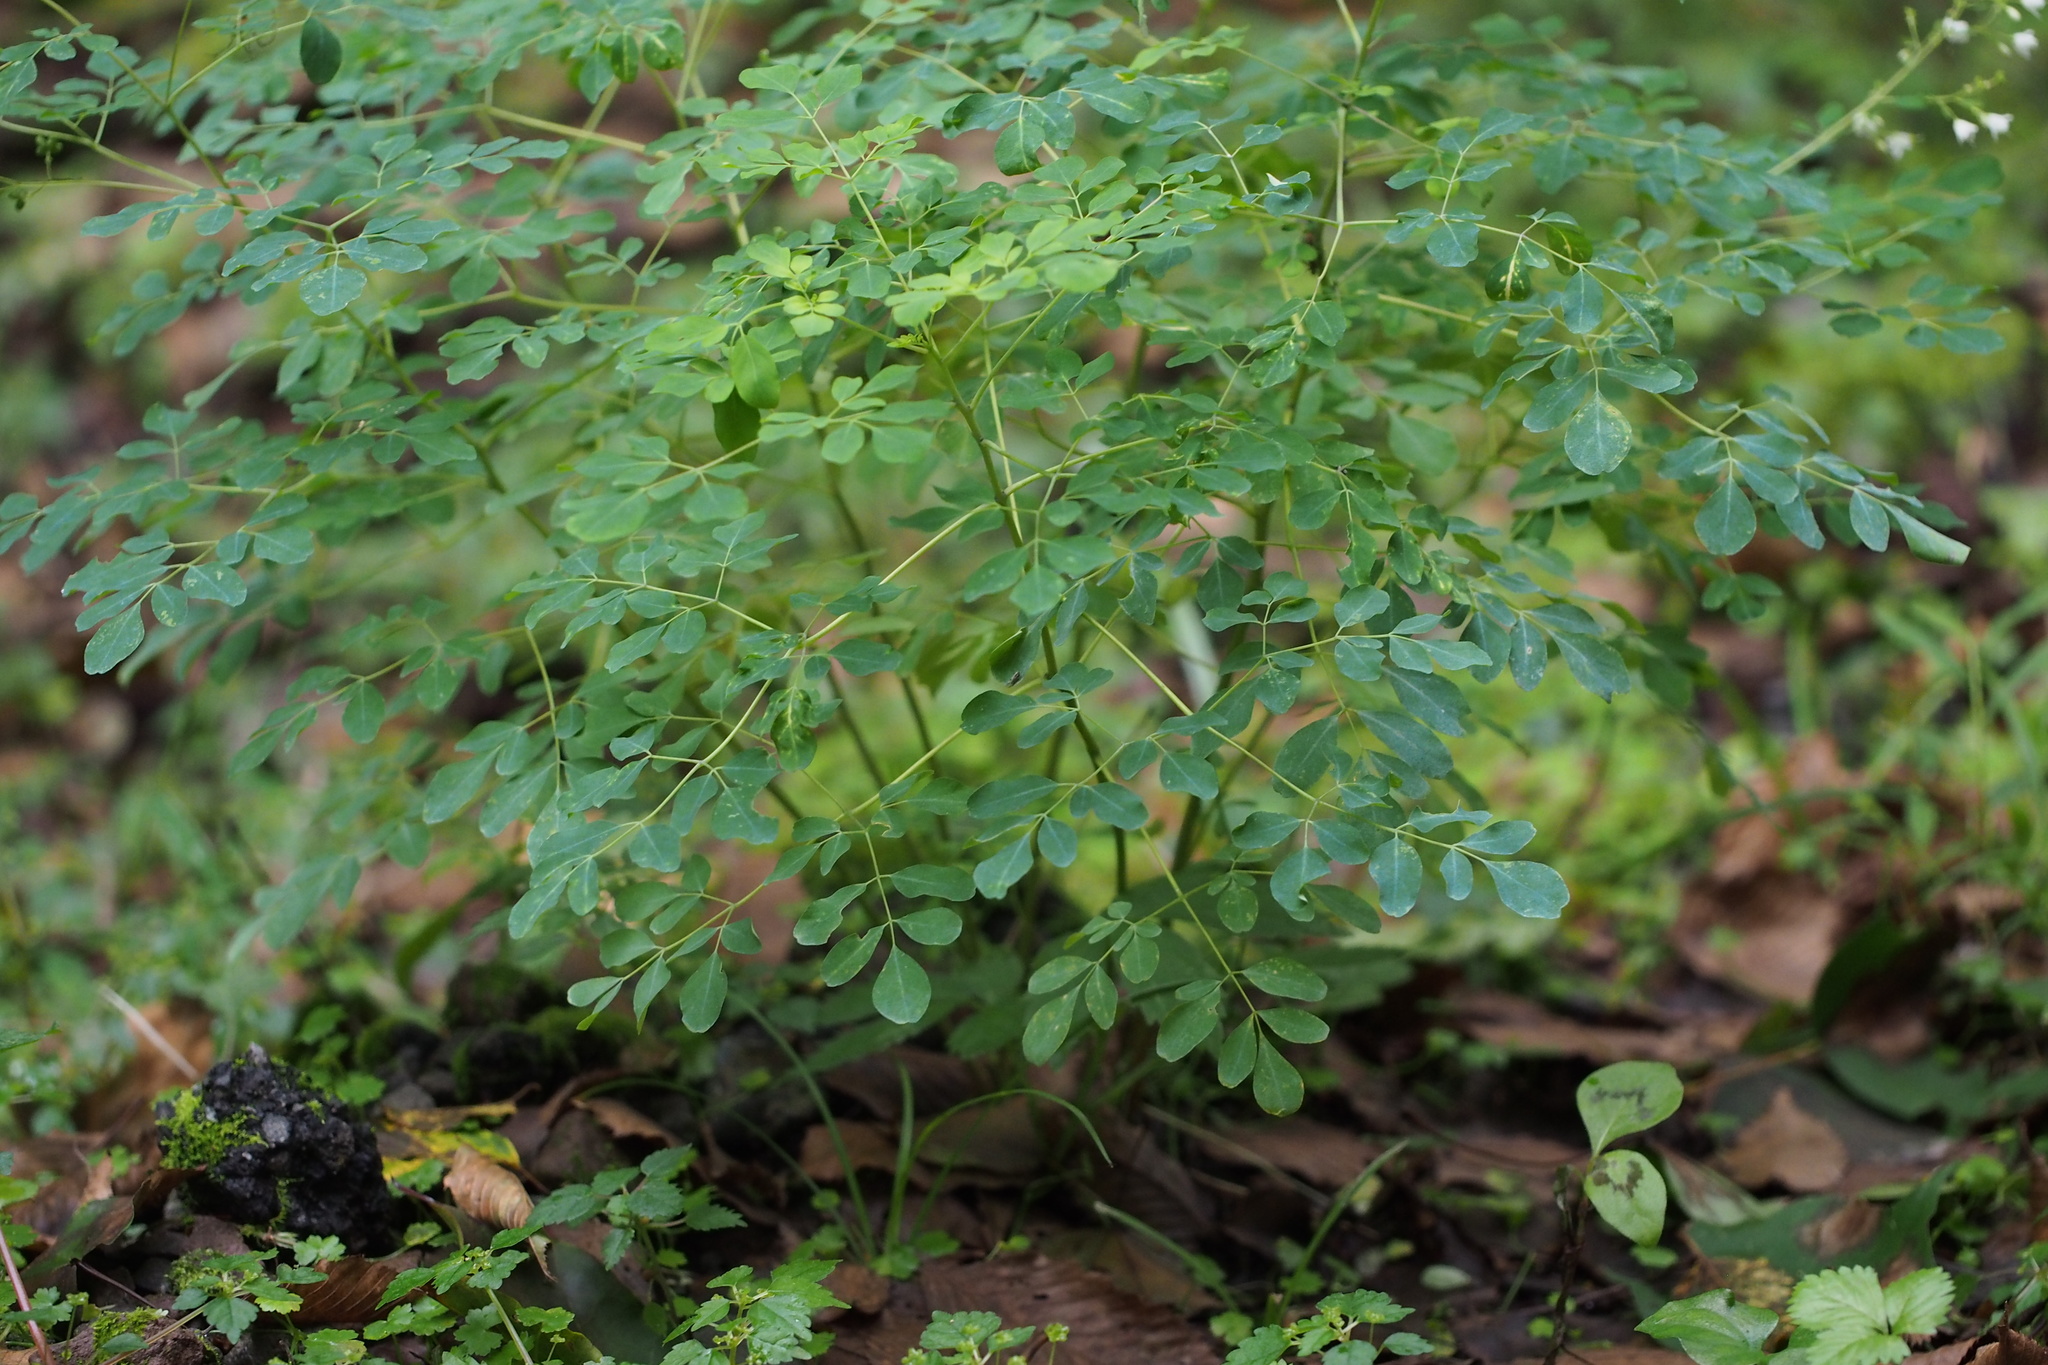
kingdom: Plantae
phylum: Tracheophyta
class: Magnoliopsida
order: Sapindales
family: Rutaceae
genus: Boenninghausenia
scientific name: Boenninghausenia albiflora
